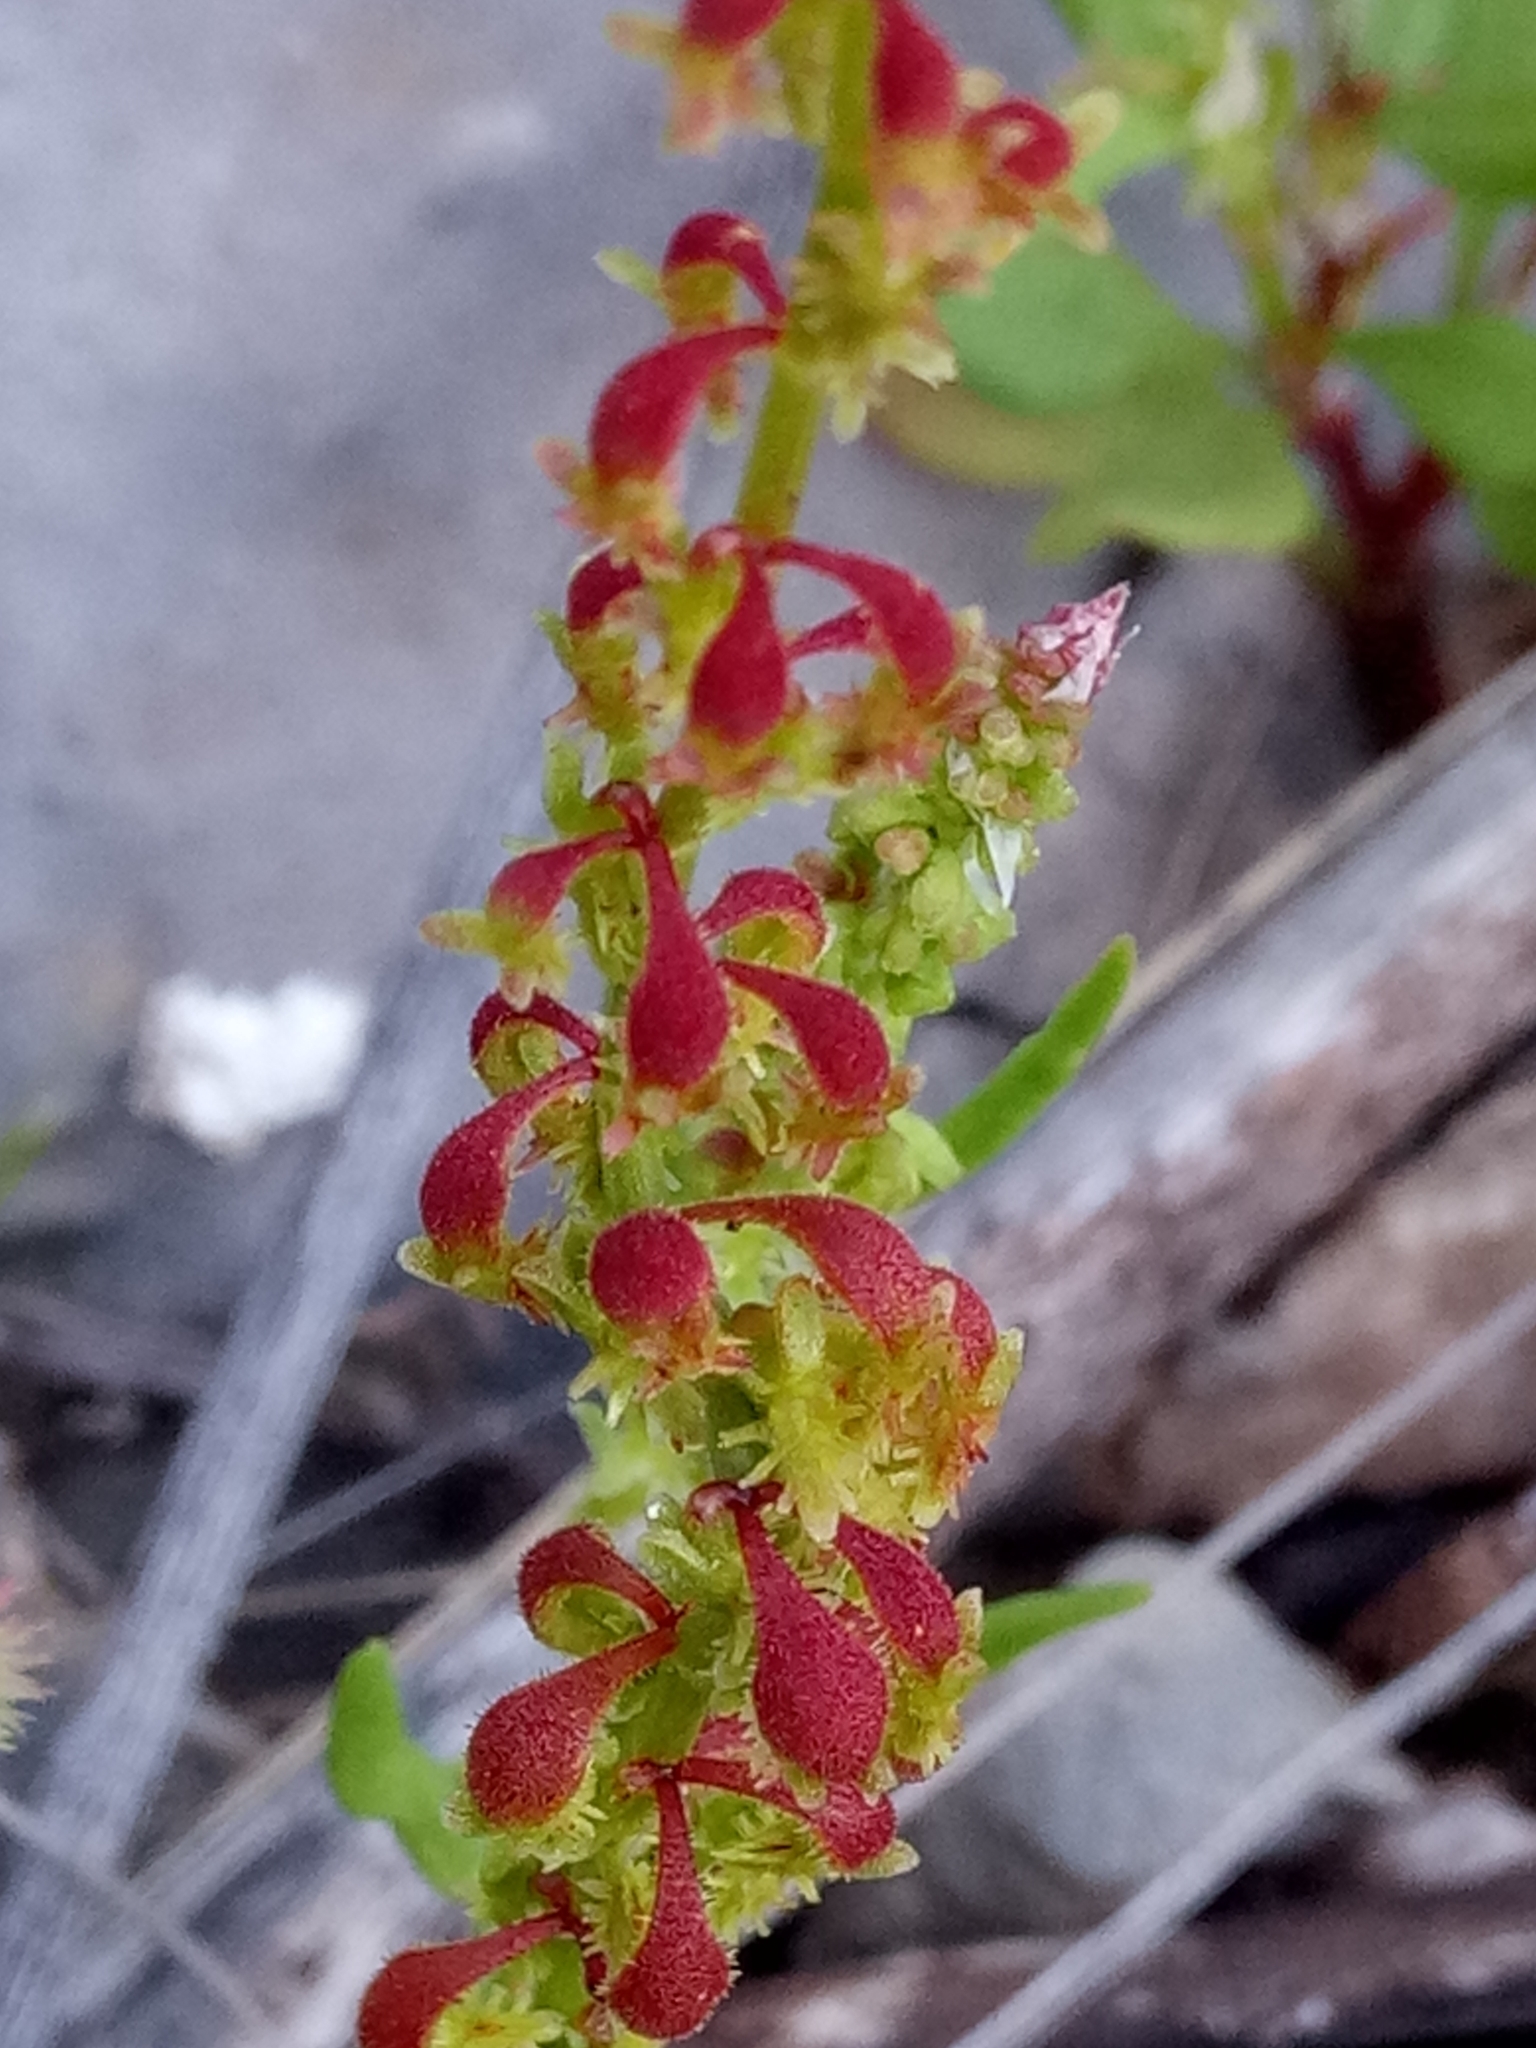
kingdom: Plantae
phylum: Tracheophyta
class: Magnoliopsida
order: Caryophyllales
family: Polygonaceae
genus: Rumex
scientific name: Rumex bucephalophorus
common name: Red dock
